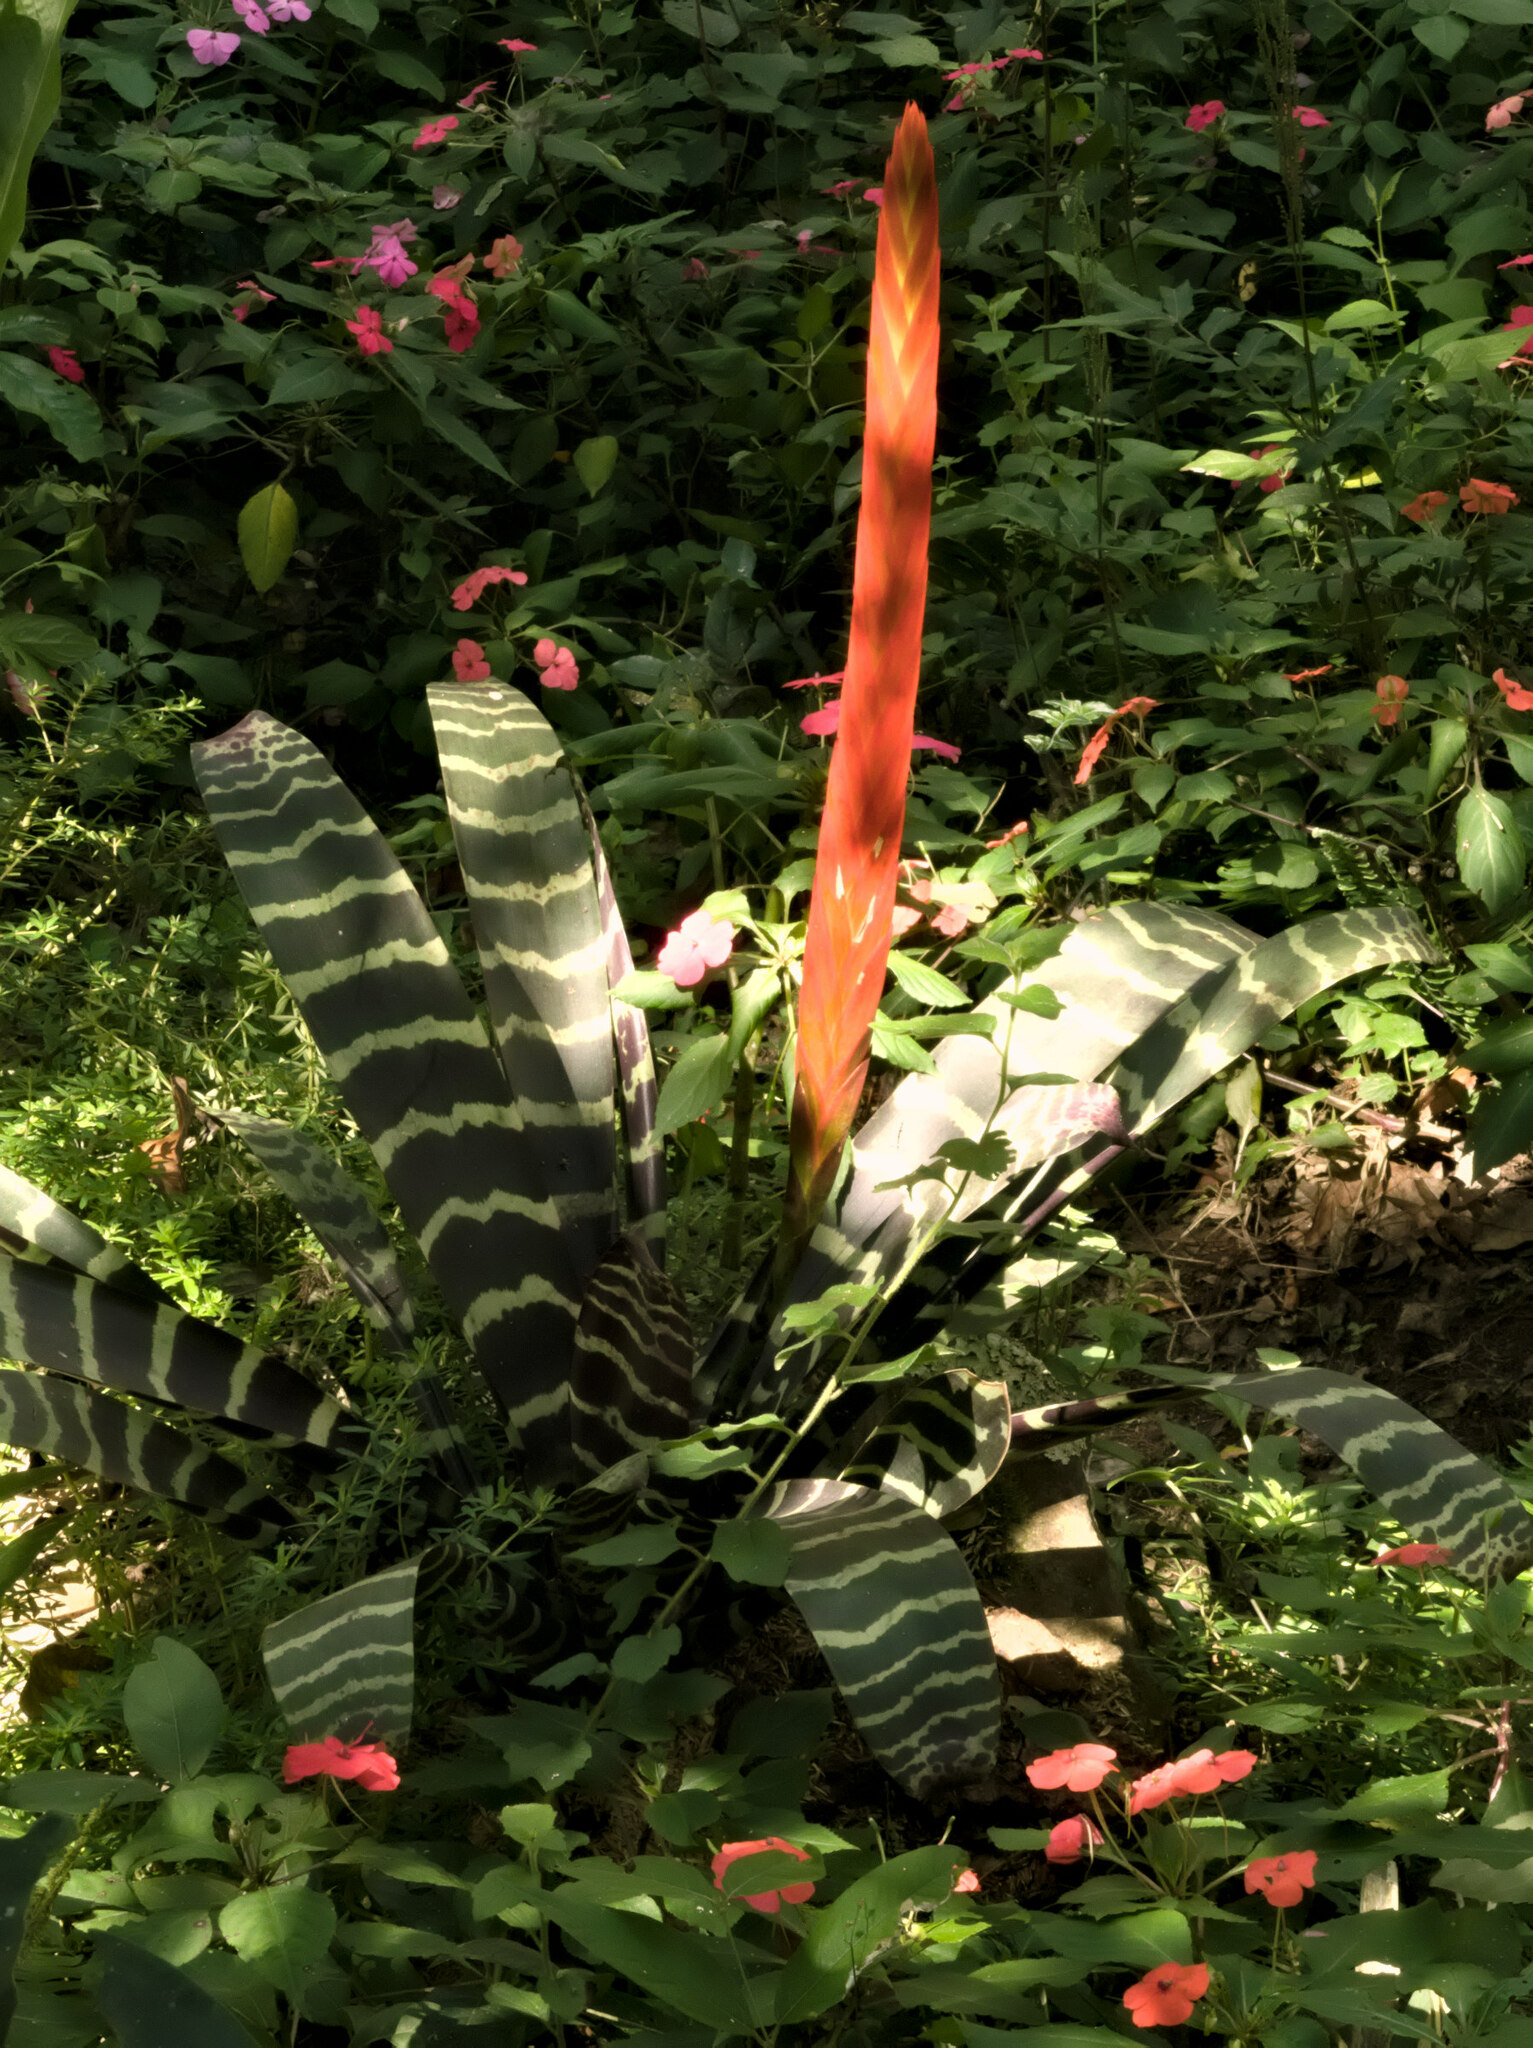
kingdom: Plantae
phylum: Tracheophyta
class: Liliopsida
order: Poales
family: Bromeliaceae
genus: Lutheria
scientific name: Lutheria splendens
